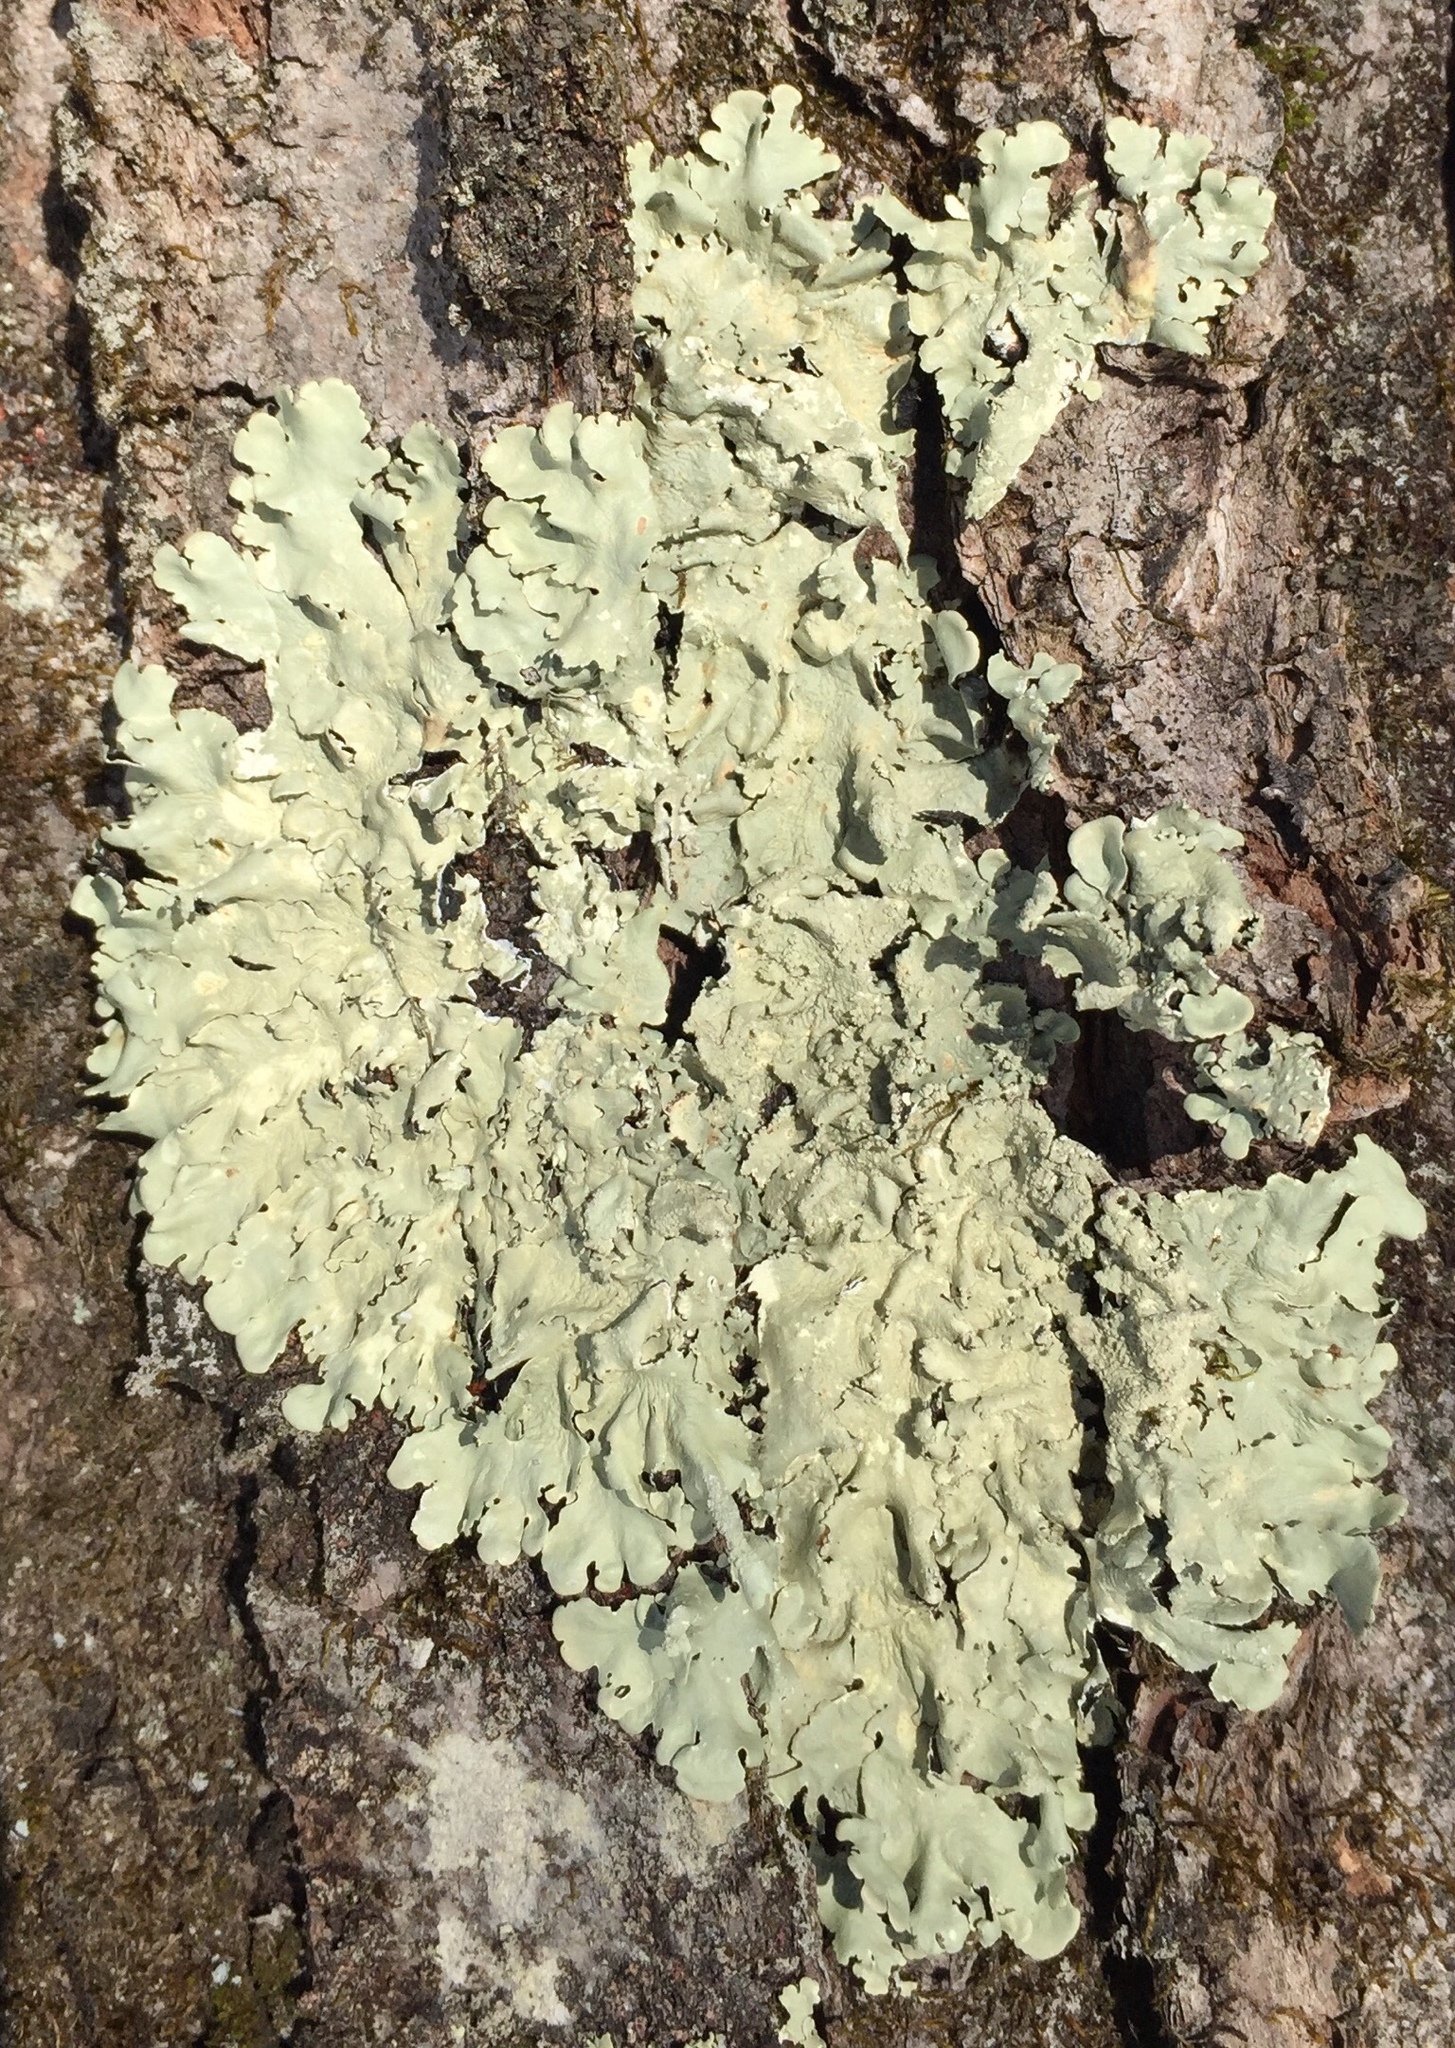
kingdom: Fungi
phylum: Ascomycota
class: Lecanoromycetes
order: Lecanorales
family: Parmeliaceae
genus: Flavoparmelia
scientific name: Flavoparmelia caperata
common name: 40-mile per hour lichen
